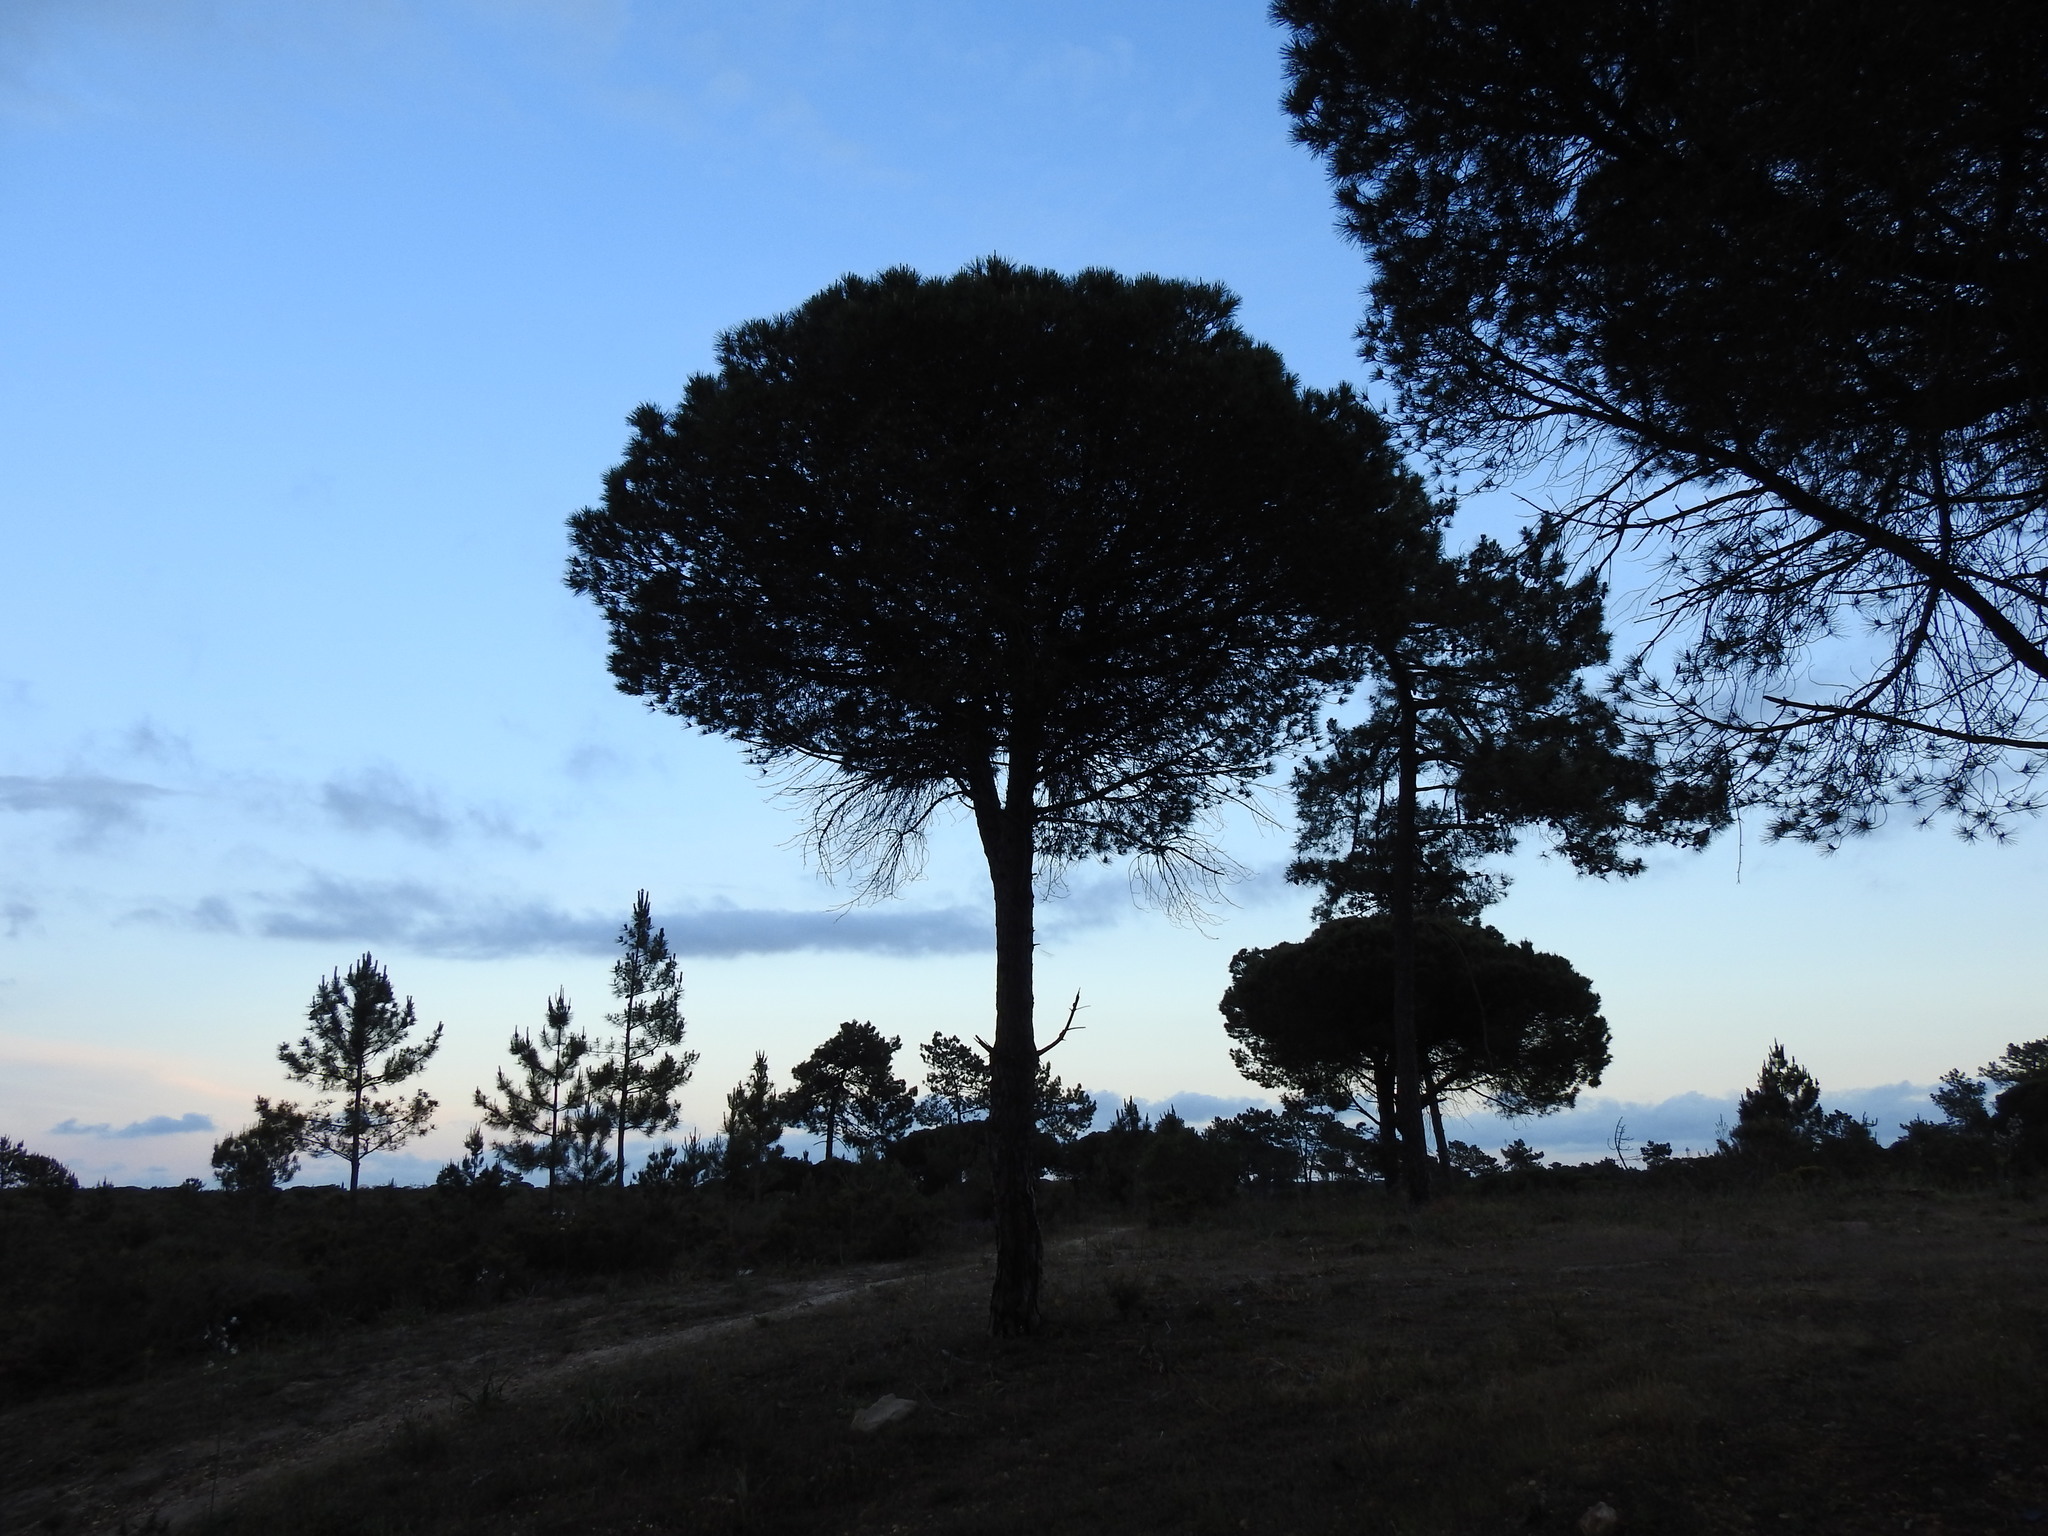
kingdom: Plantae
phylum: Tracheophyta
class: Pinopsida
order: Pinales
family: Pinaceae
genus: Pinus
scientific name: Pinus pinea
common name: Italian stone pine
